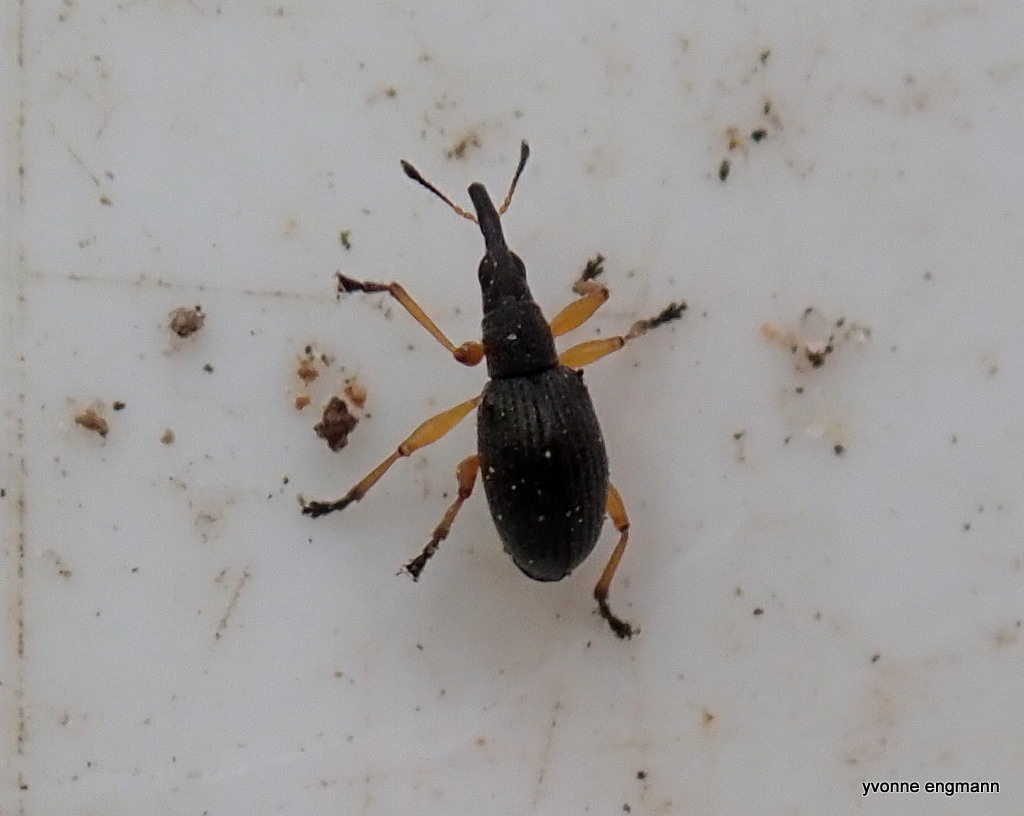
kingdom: Animalia
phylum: Arthropoda
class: Insecta
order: Coleoptera
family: Apionidae
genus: Protapion
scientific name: Protapion fulvipes
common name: White clover seed weevil
